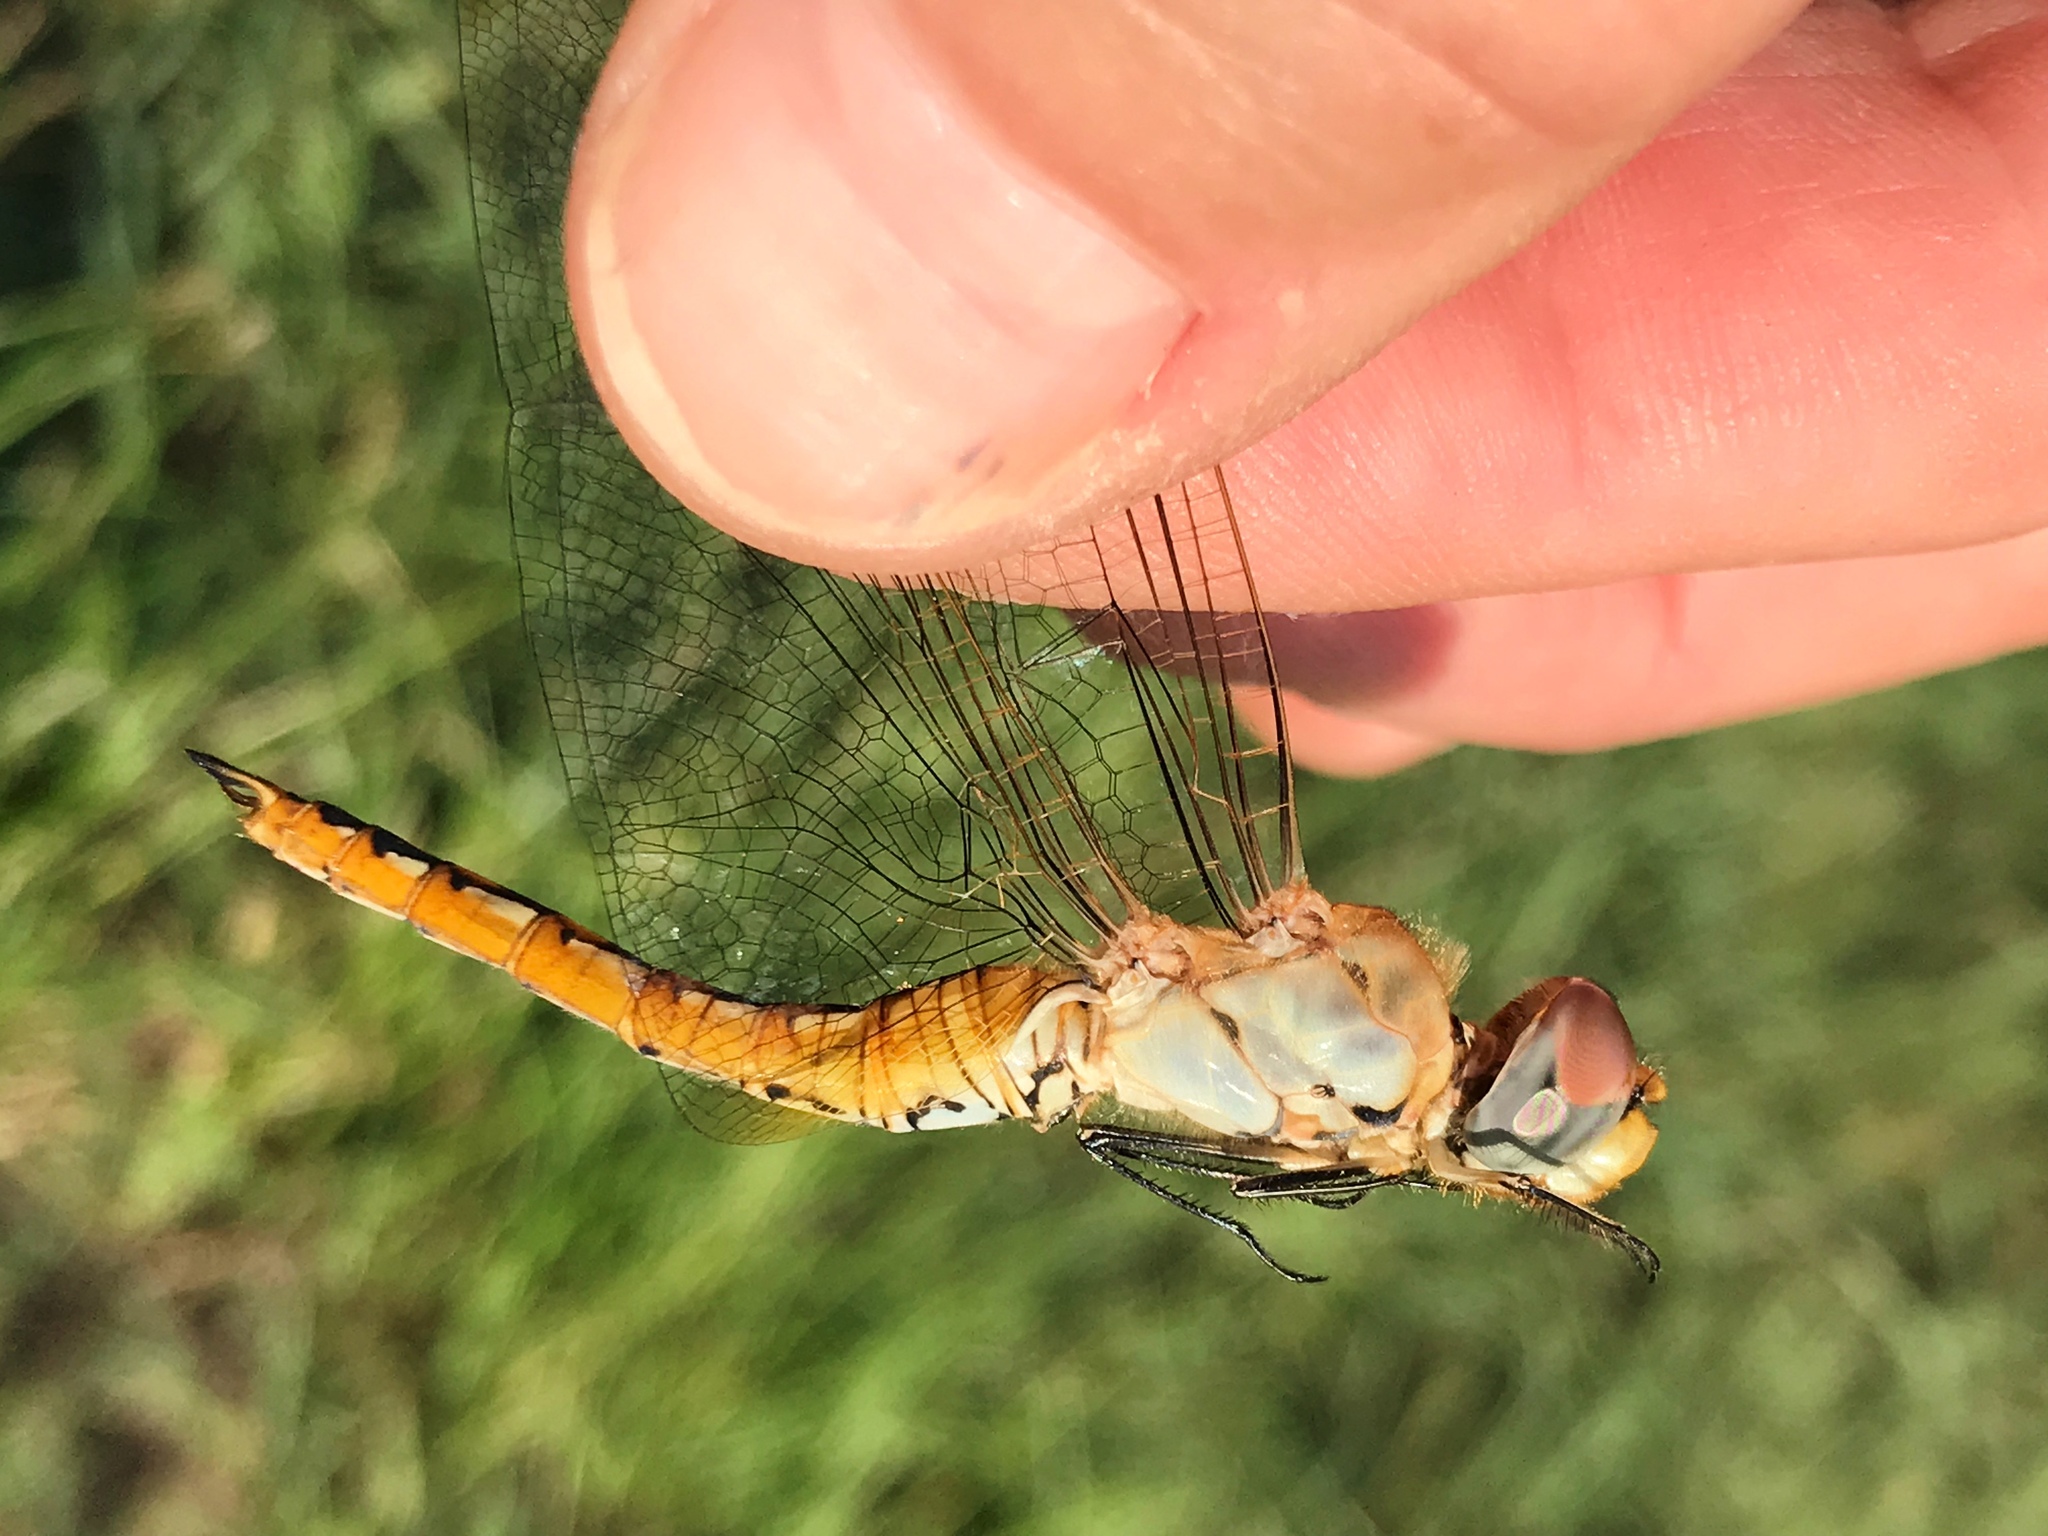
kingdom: Animalia
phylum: Arthropoda
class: Insecta
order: Odonata
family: Libellulidae
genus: Pantala
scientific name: Pantala flavescens
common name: Wandering glider
